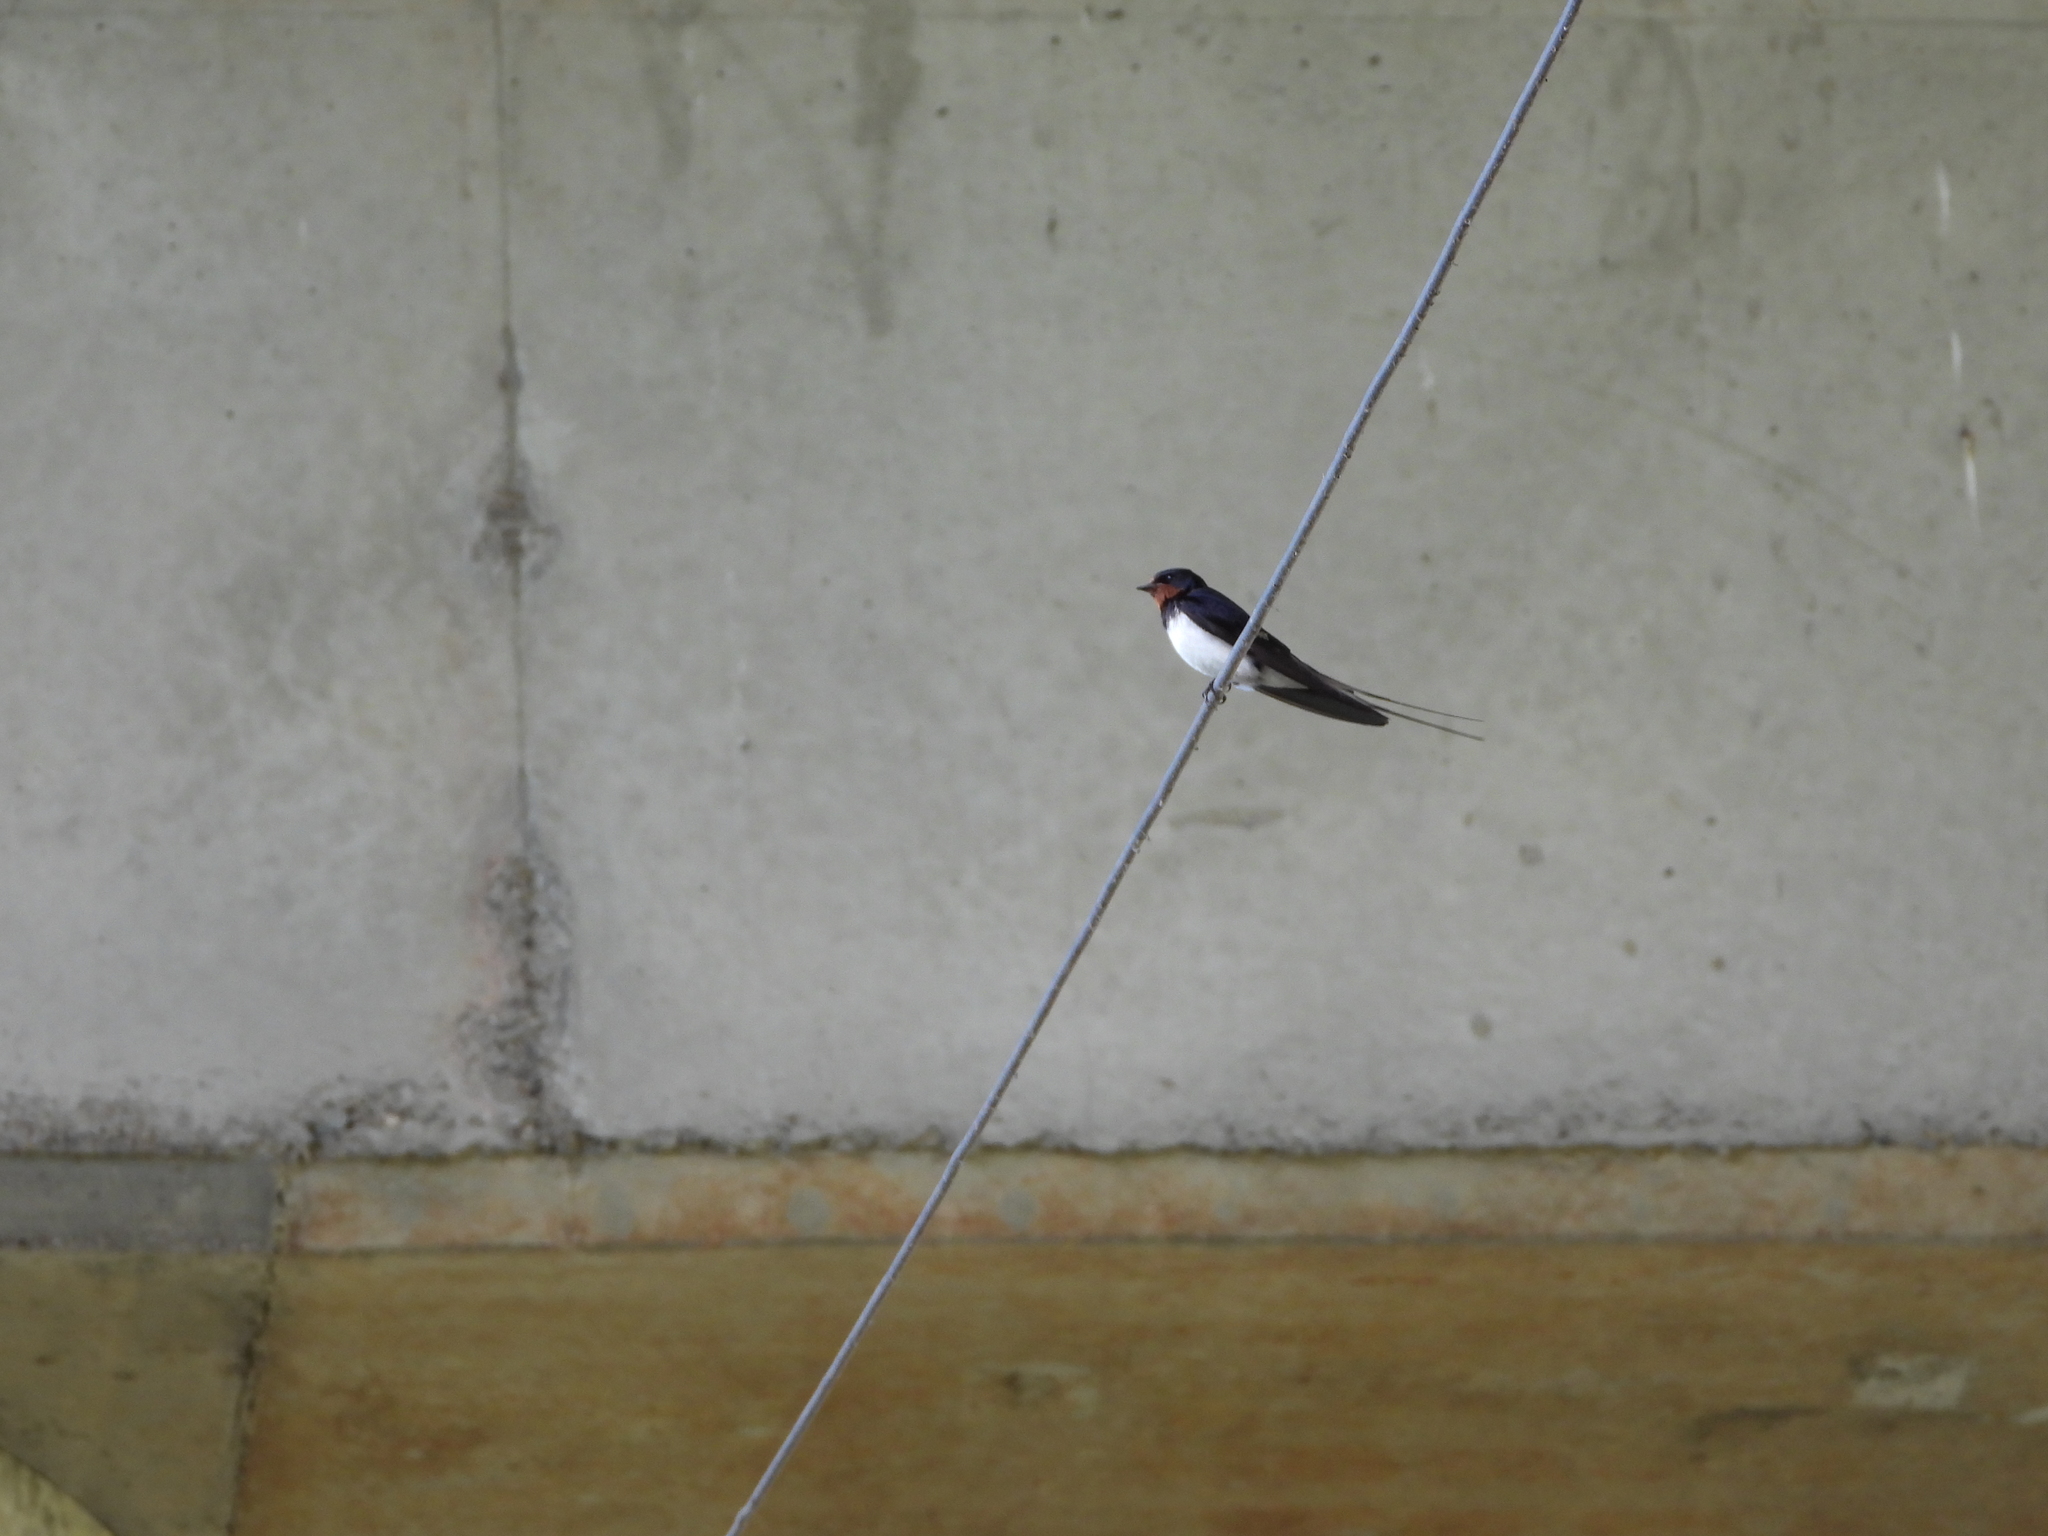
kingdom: Animalia
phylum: Chordata
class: Aves
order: Passeriformes
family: Hirundinidae
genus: Hirundo
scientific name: Hirundo rustica
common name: Barn swallow
